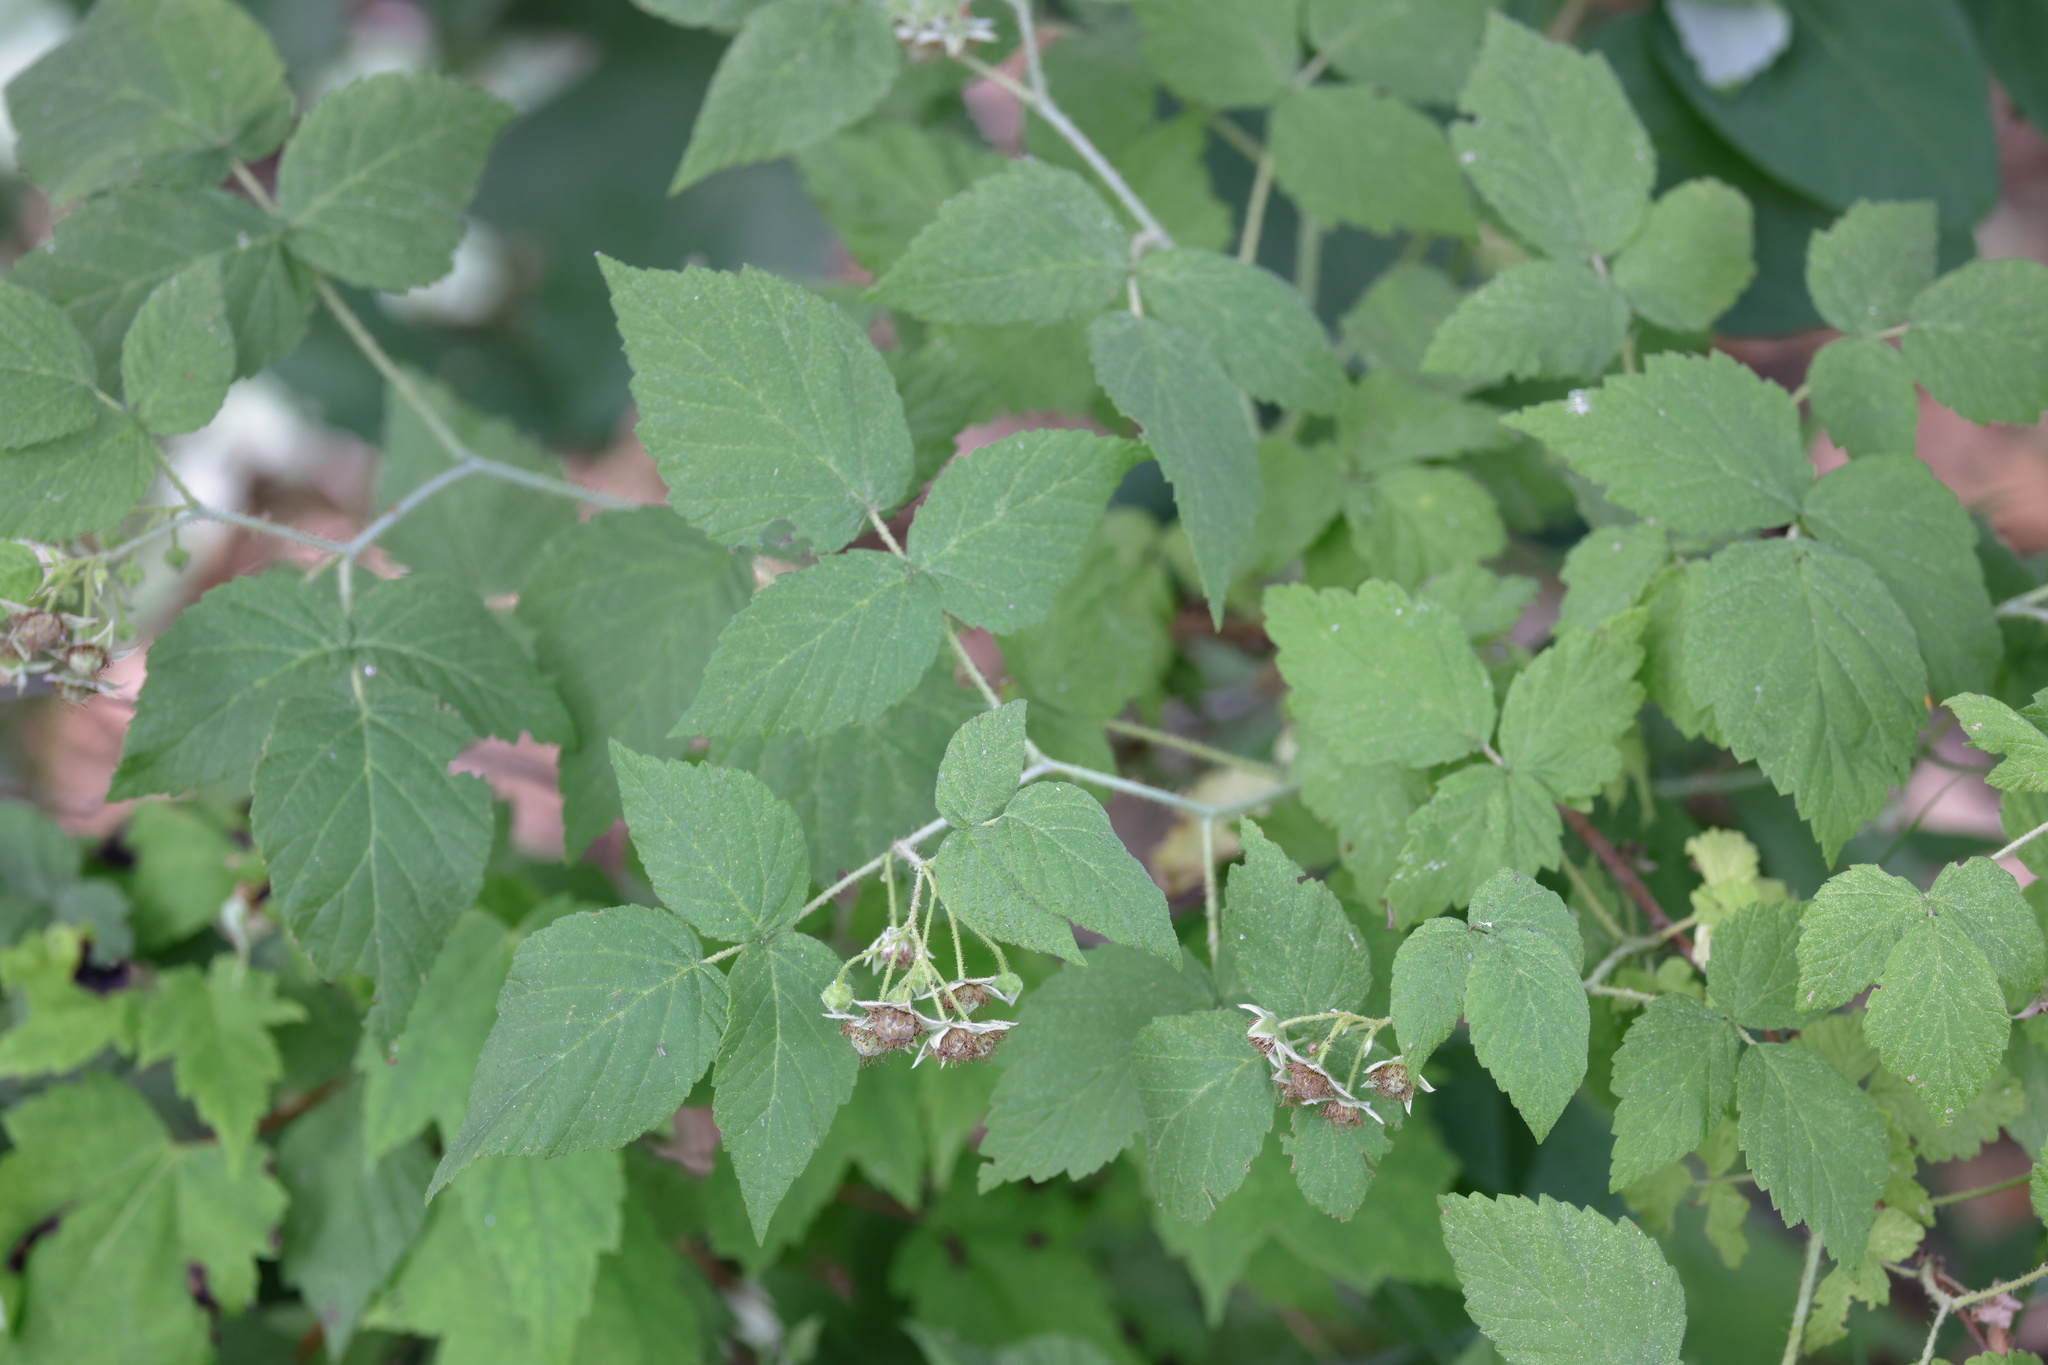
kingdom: Plantae
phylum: Tracheophyta
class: Magnoliopsida
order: Rosales
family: Rosaceae
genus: Rubus
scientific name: Rubus occidentalis
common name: Black raspberry
